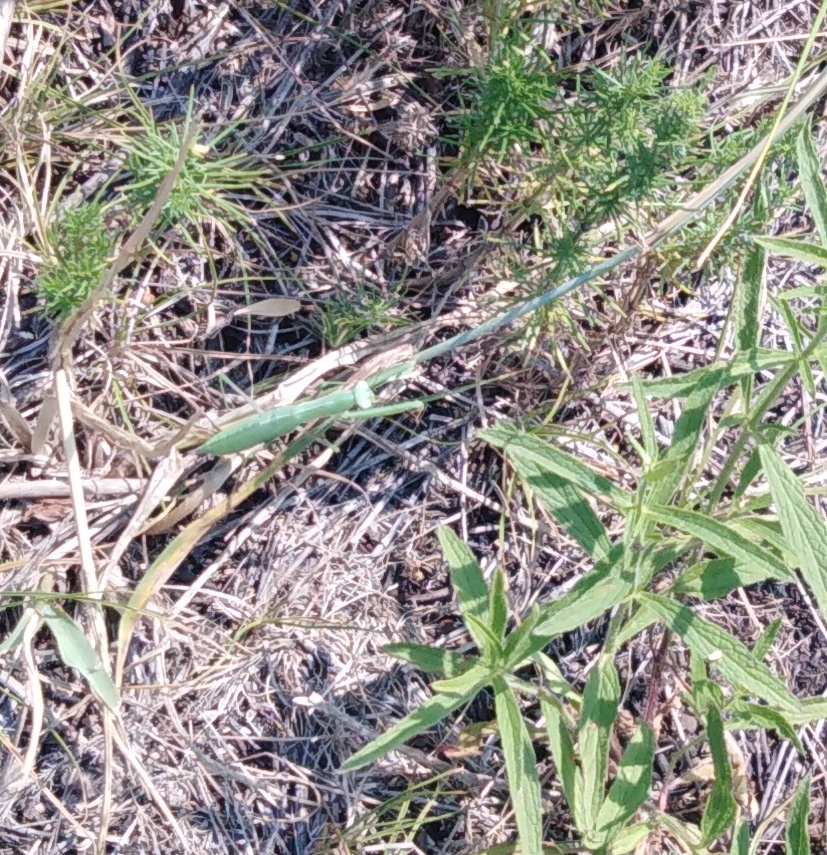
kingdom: Animalia
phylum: Arthropoda
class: Insecta
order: Mantodea
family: Mantidae
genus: Mantis
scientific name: Mantis religiosa
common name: Praying mantis
